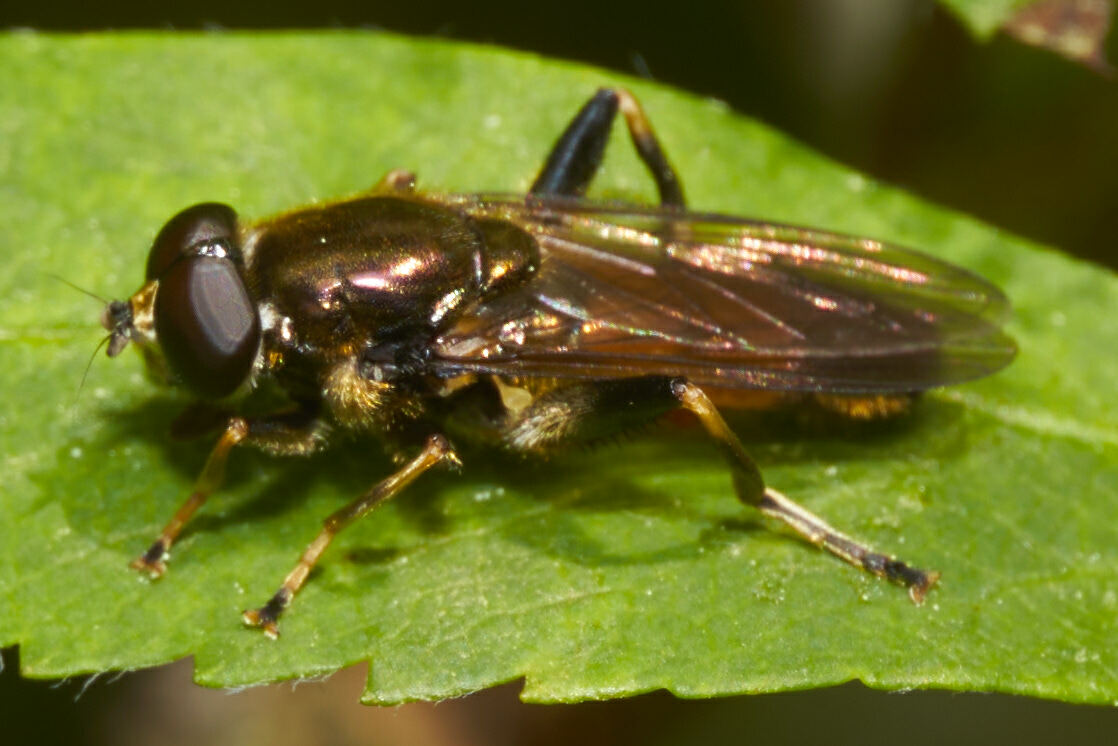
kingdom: Animalia
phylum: Arthropoda
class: Insecta
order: Diptera
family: Syrphidae
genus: Xylota
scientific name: Xylota segnis
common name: Brown-toed forest fly
